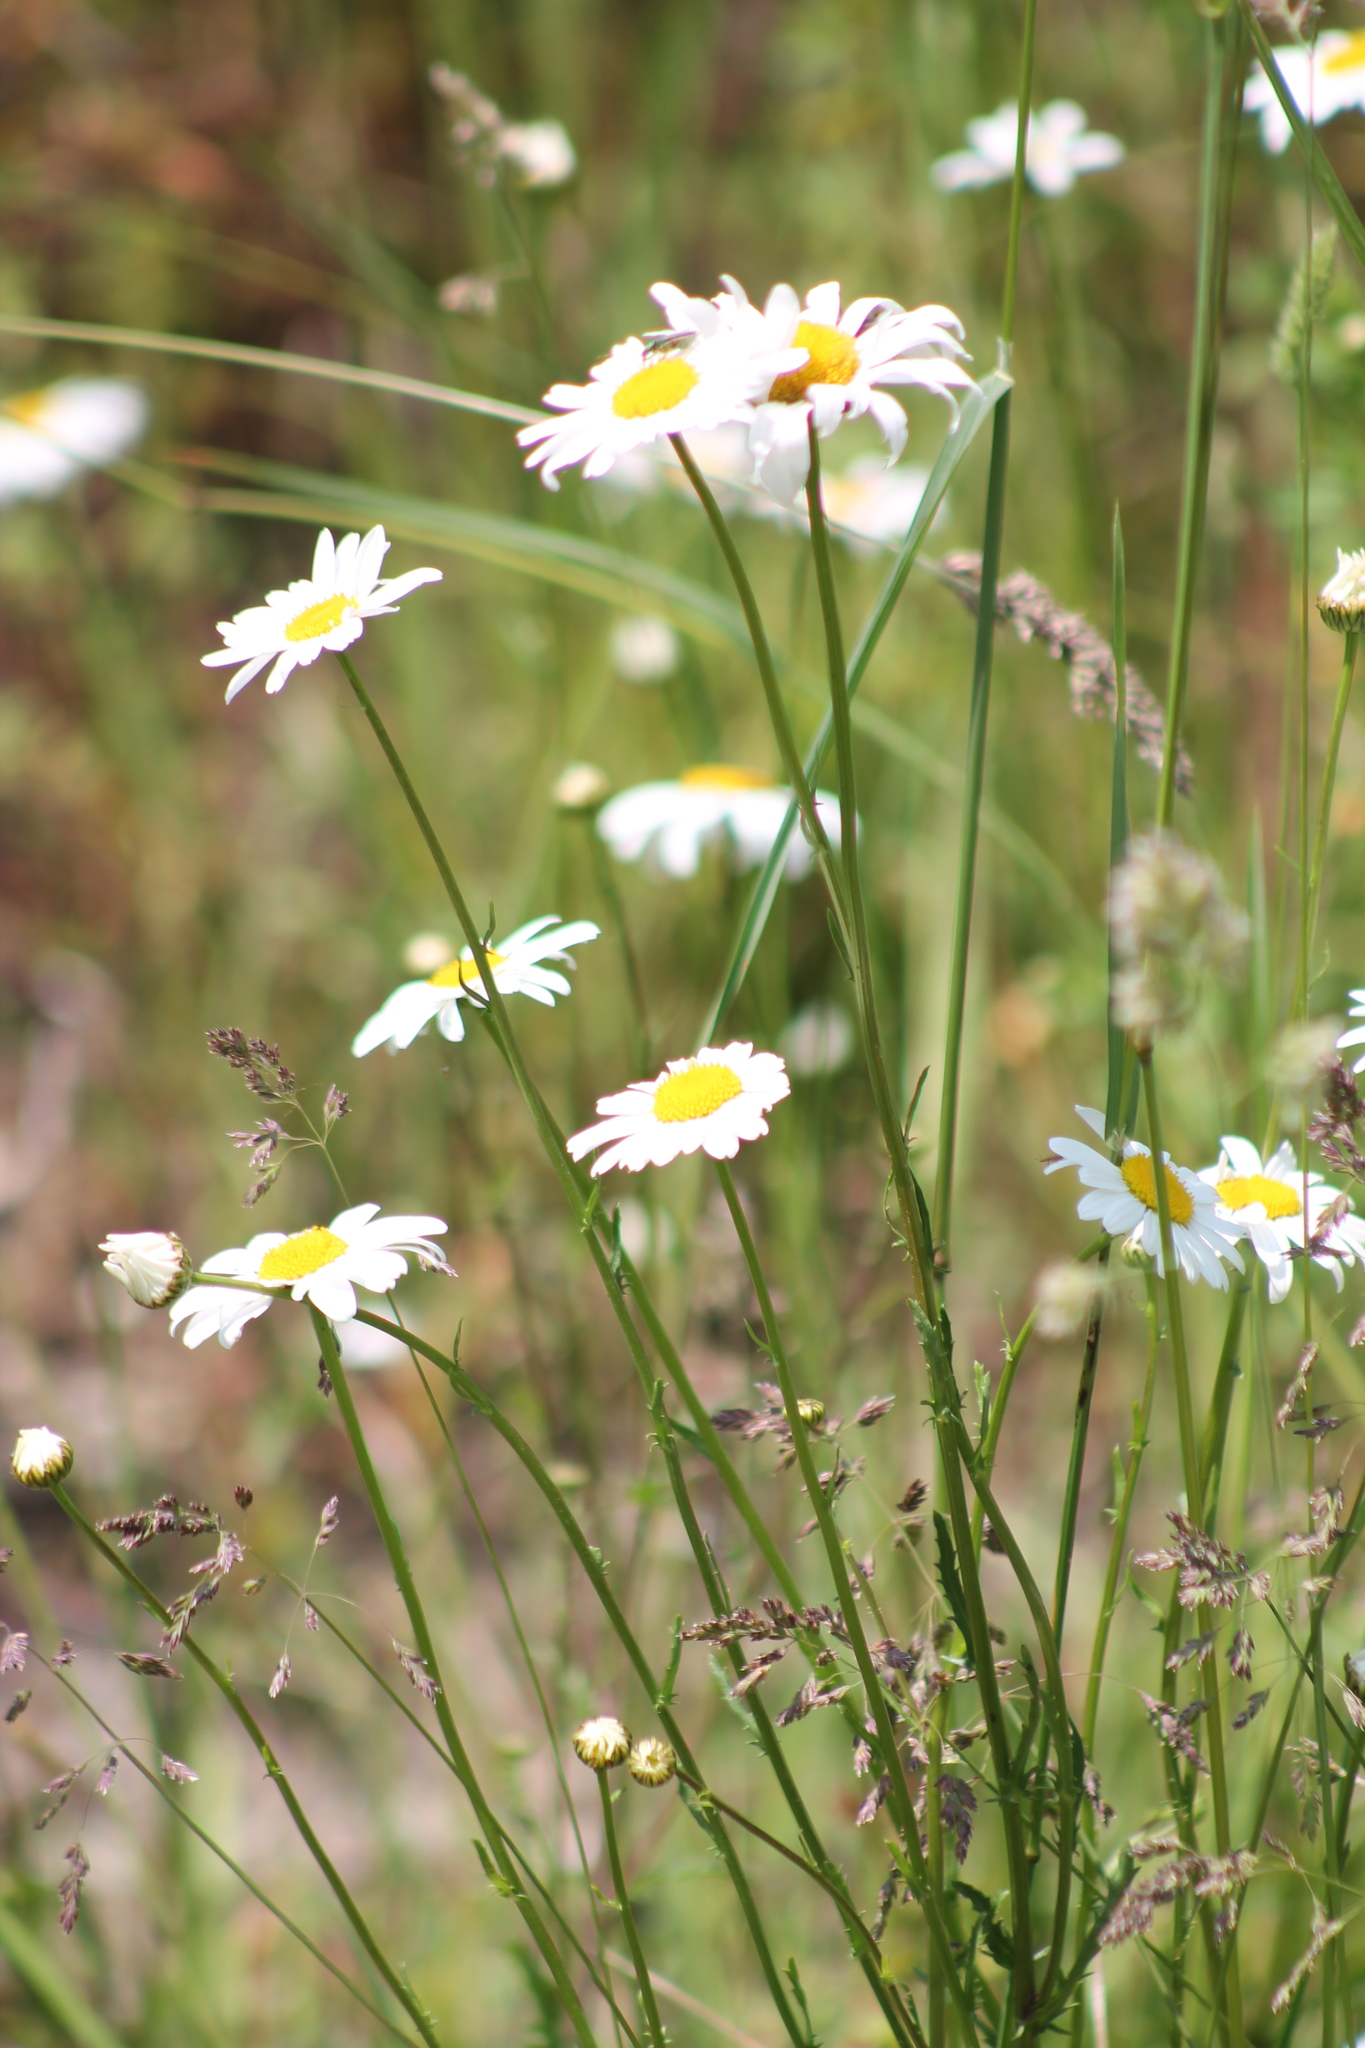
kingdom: Plantae
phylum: Tracheophyta
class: Magnoliopsida
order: Asterales
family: Asteraceae
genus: Leucanthemum
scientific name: Leucanthemum vulgare
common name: Oxeye daisy
